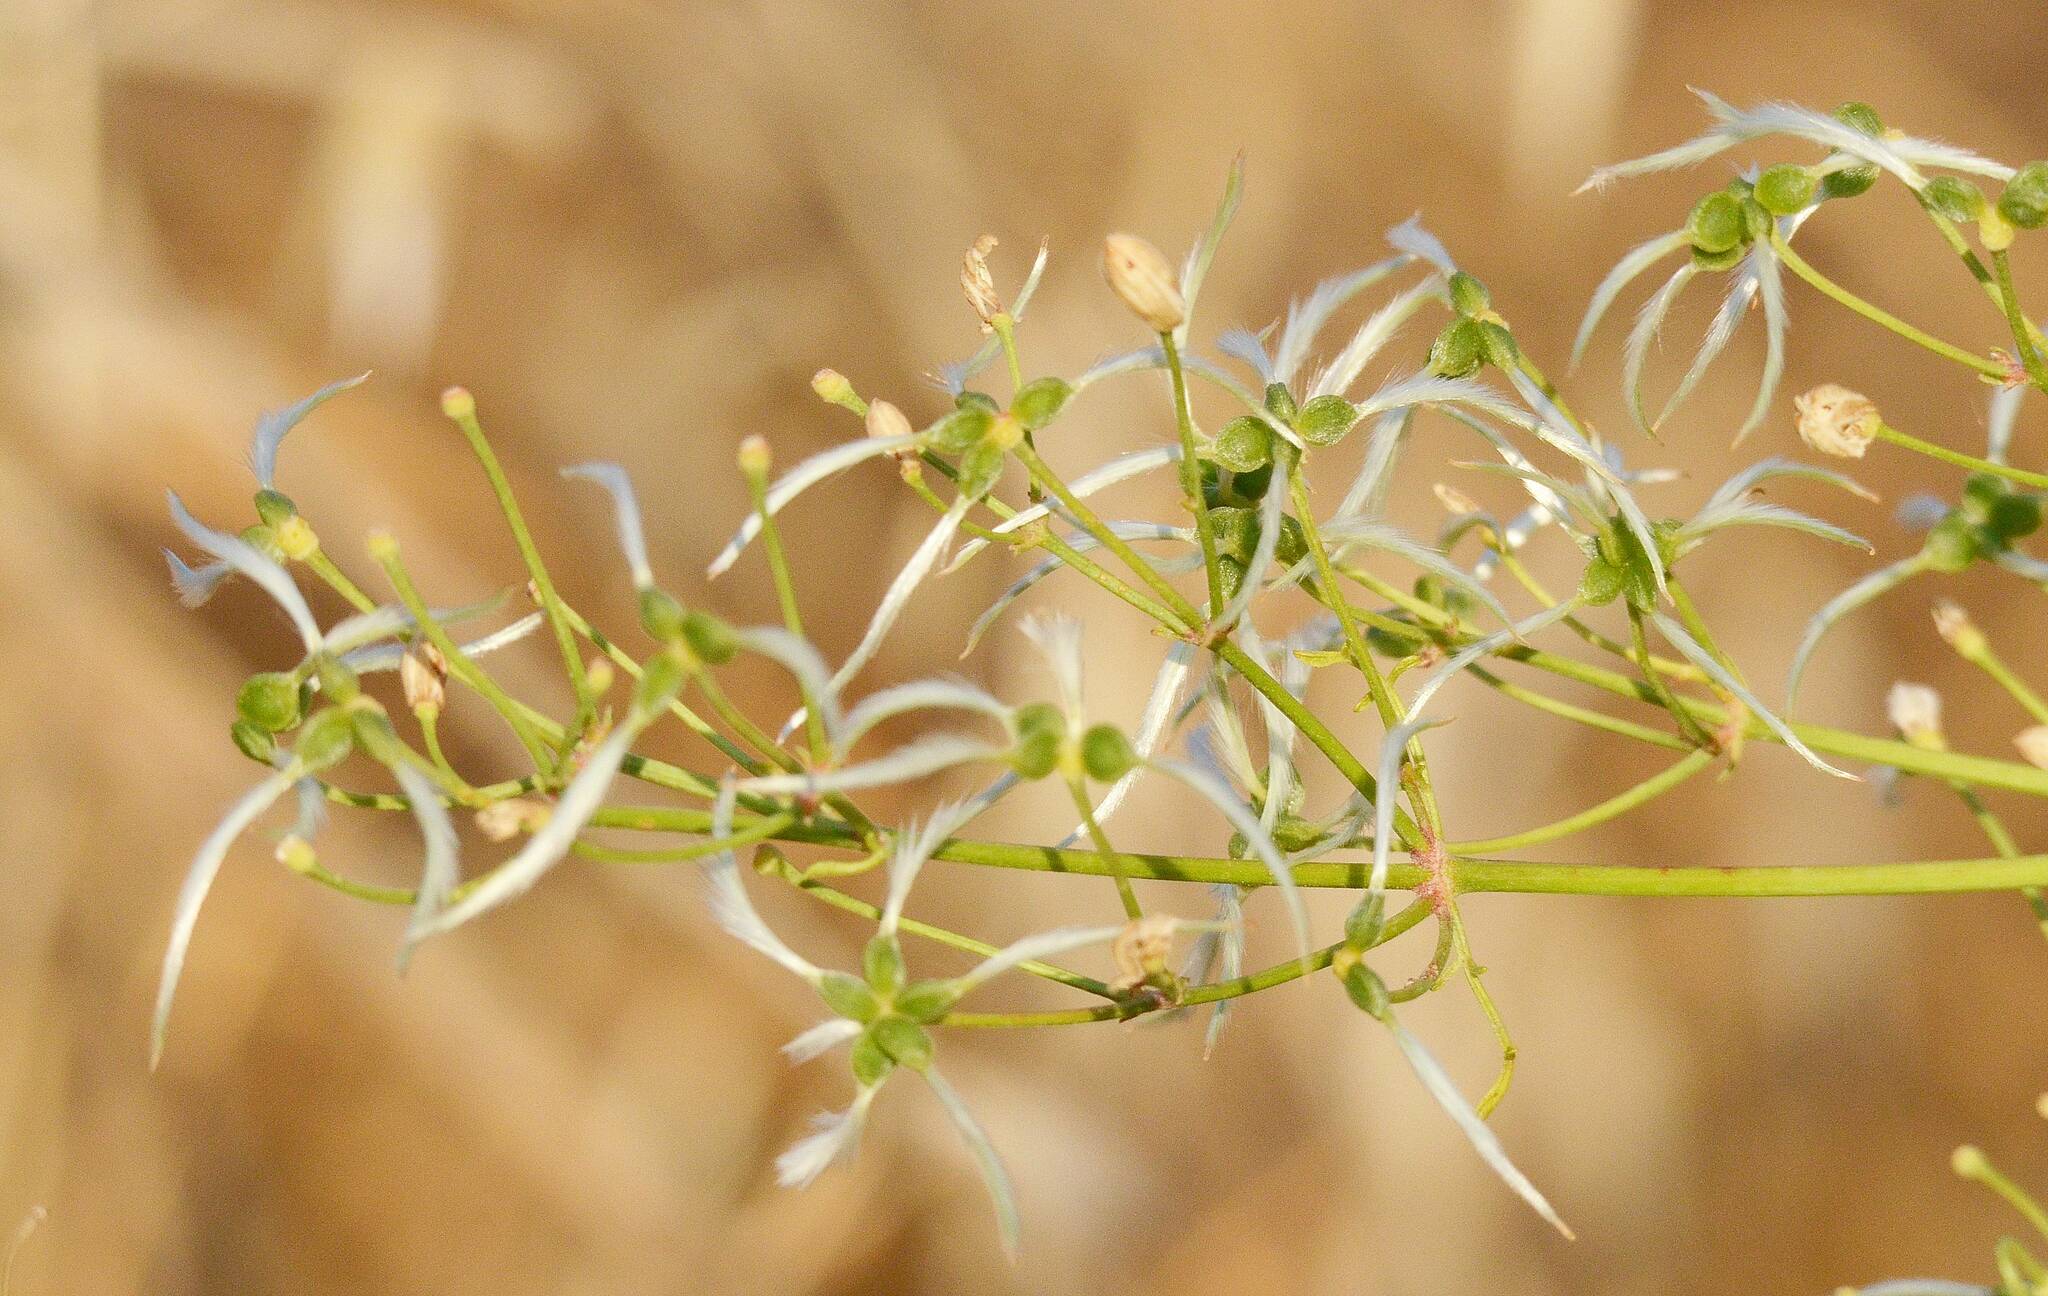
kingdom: Plantae
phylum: Tracheophyta
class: Magnoliopsida
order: Ranunculales
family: Ranunculaceae
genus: Clematis
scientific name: Clematis flammula
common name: Virgin's-bower
